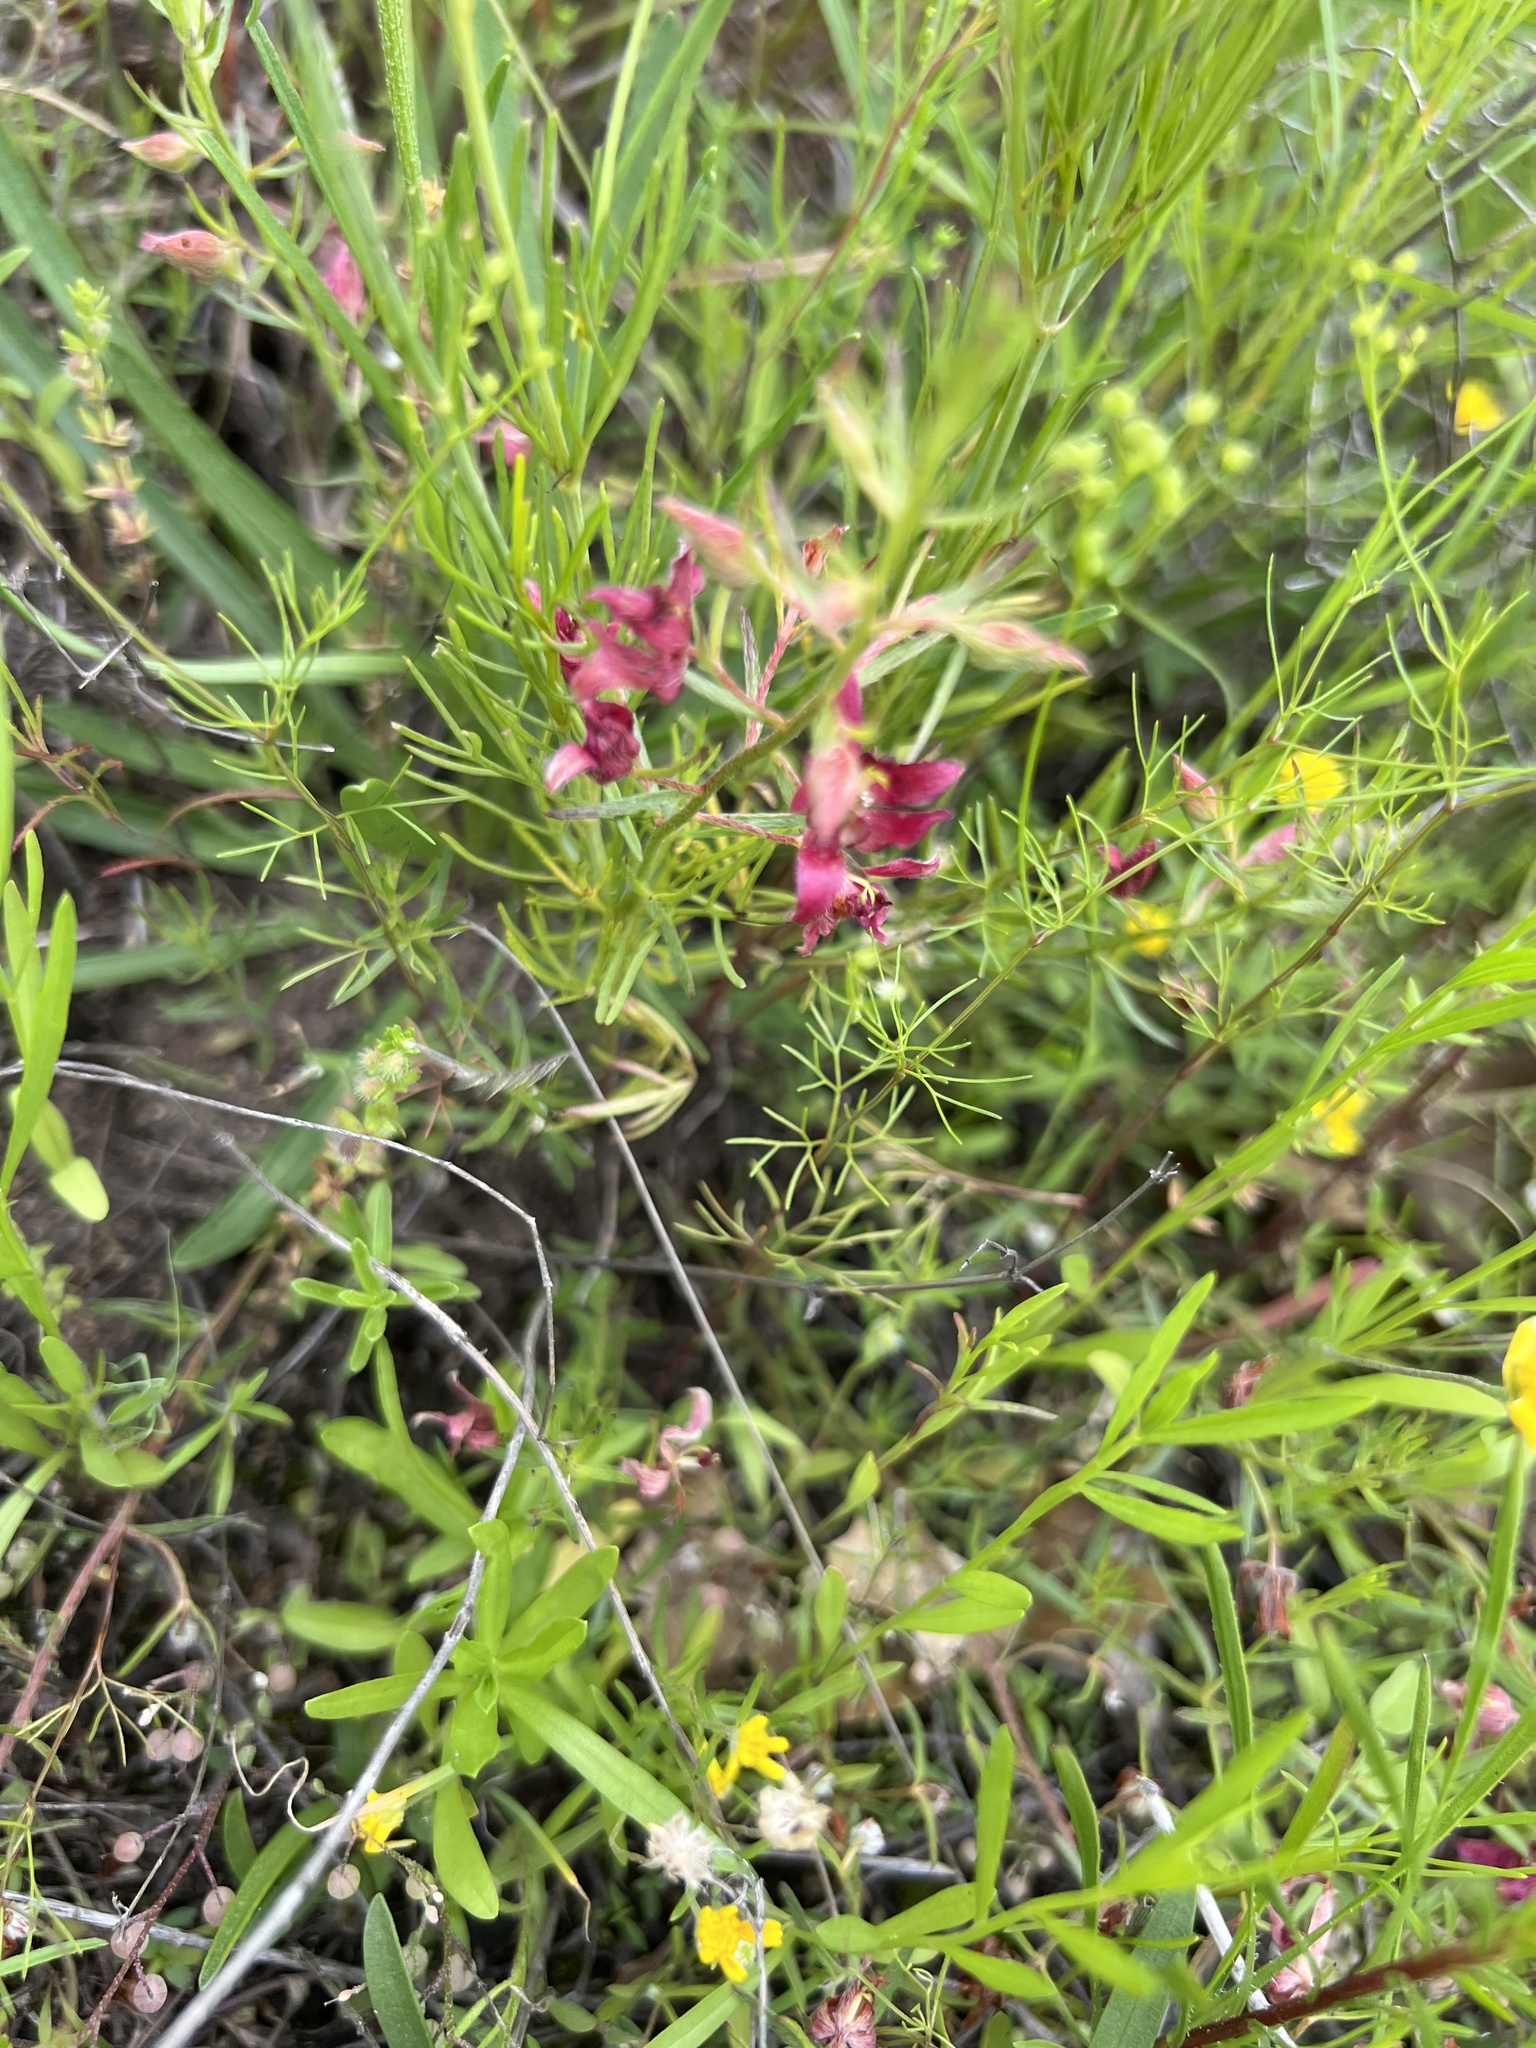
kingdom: Plantae
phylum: Tracheophyta
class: Magnoliopsida
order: Zygophyllales
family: Krameriaceae
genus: Krameria
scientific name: Krameria lanceolata
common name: Ratany
